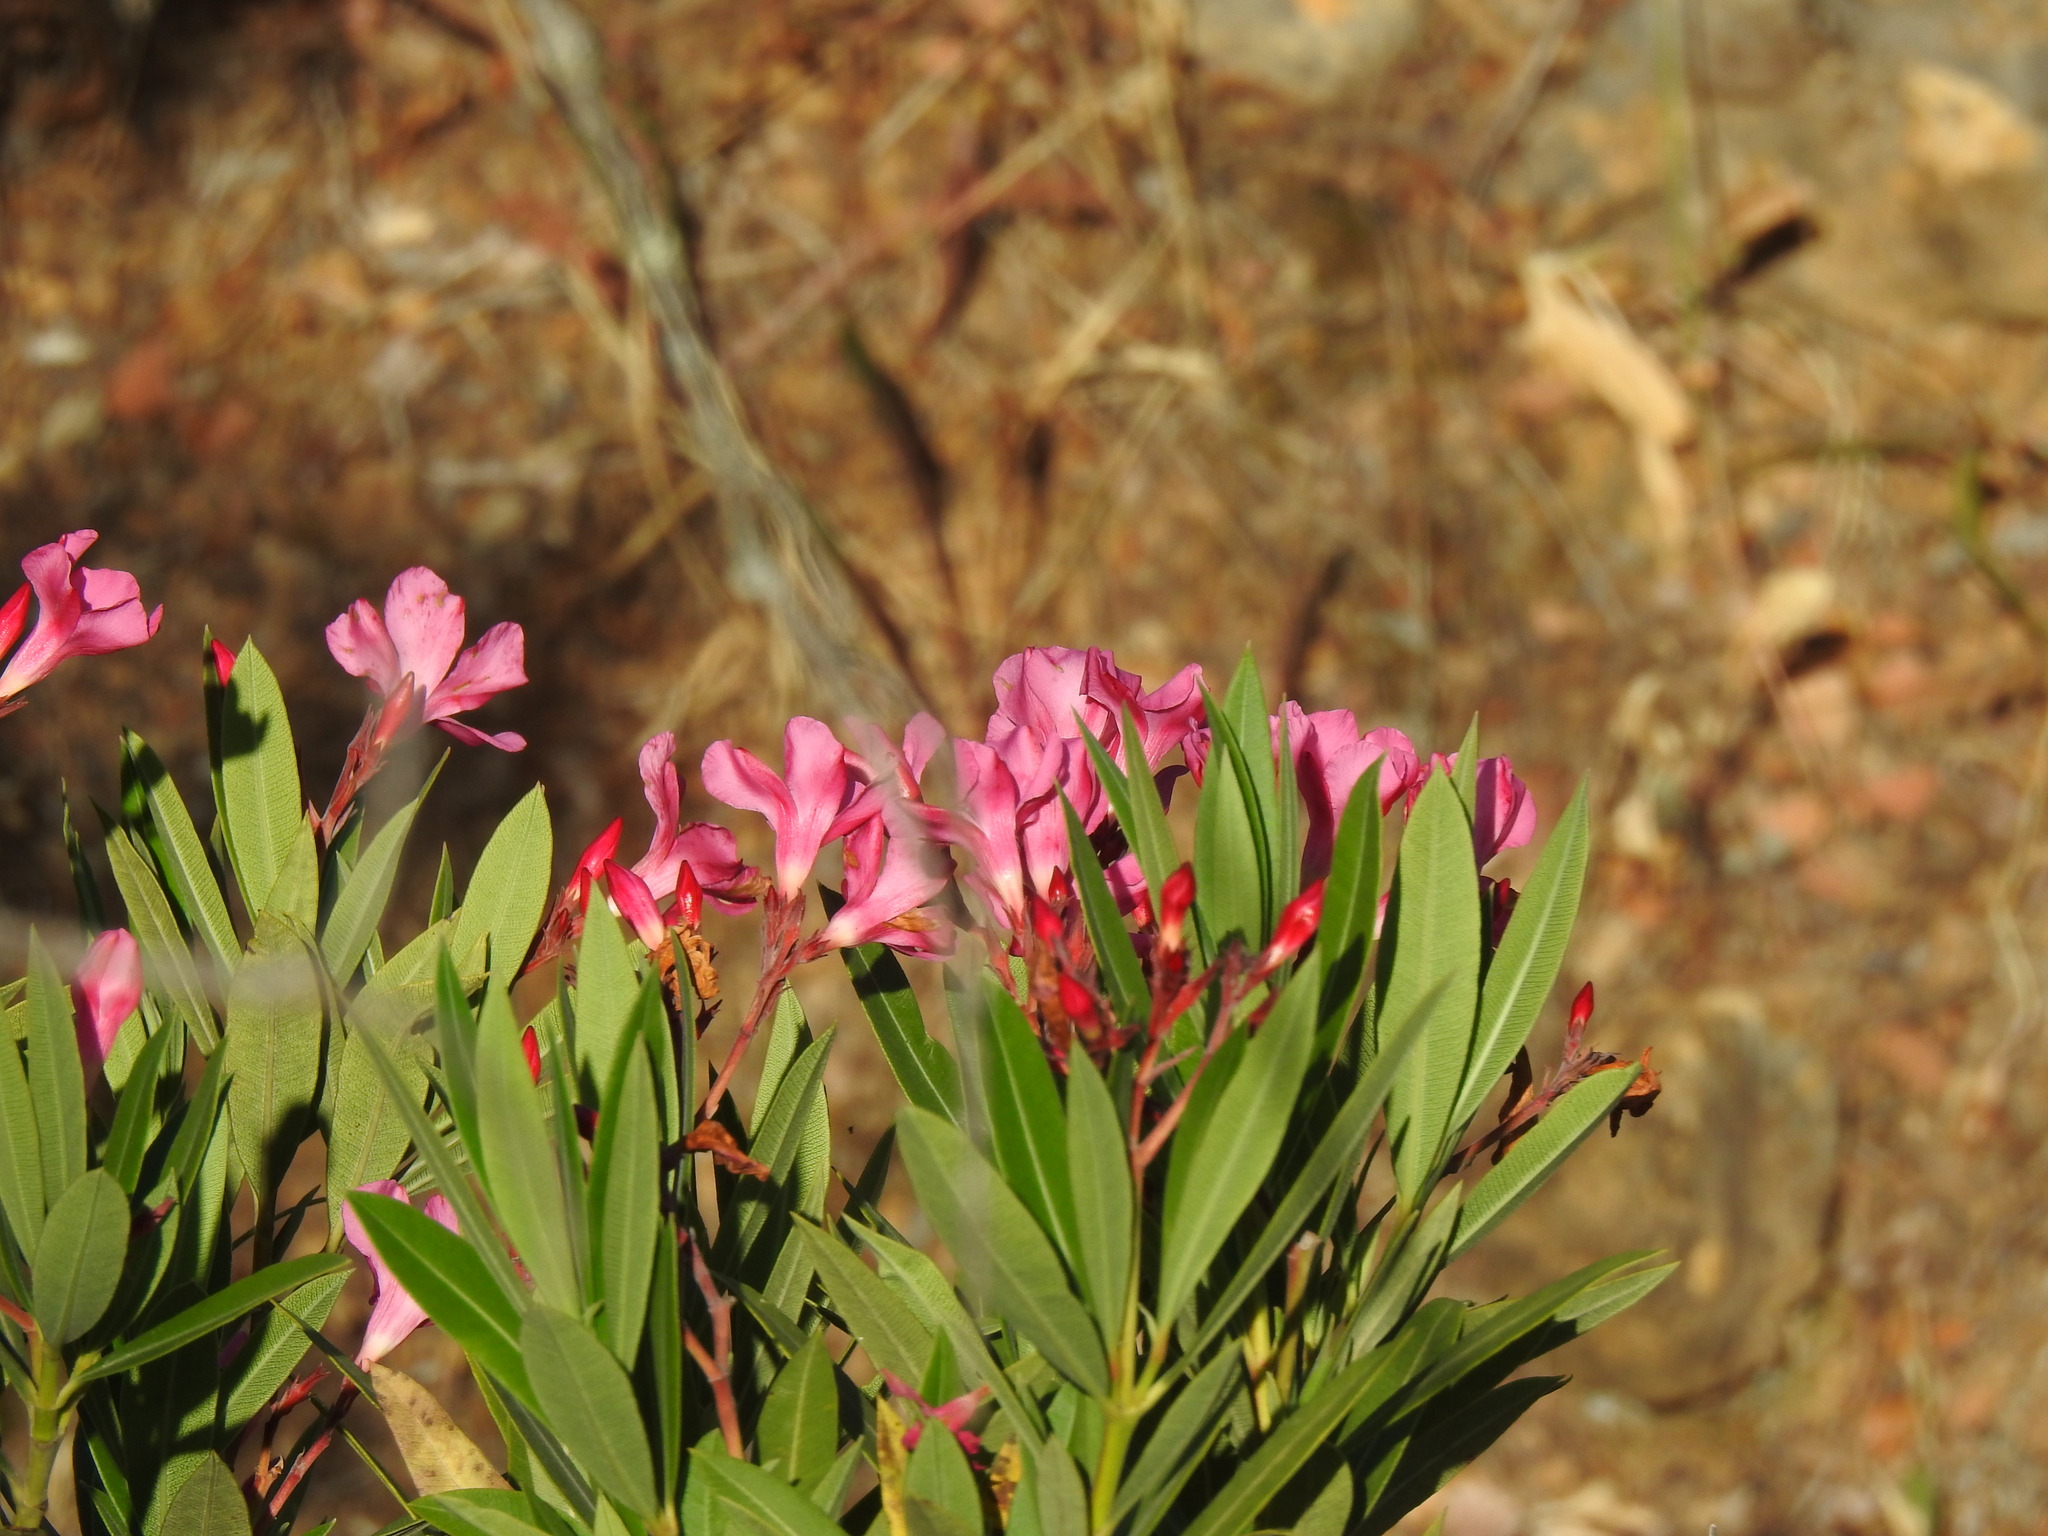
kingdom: Plantae
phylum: Tracheophyta
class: Magnoliopsida
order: Gentianales
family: Apocynaceae
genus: Nerium
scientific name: Nerium oleander
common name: Oleander
